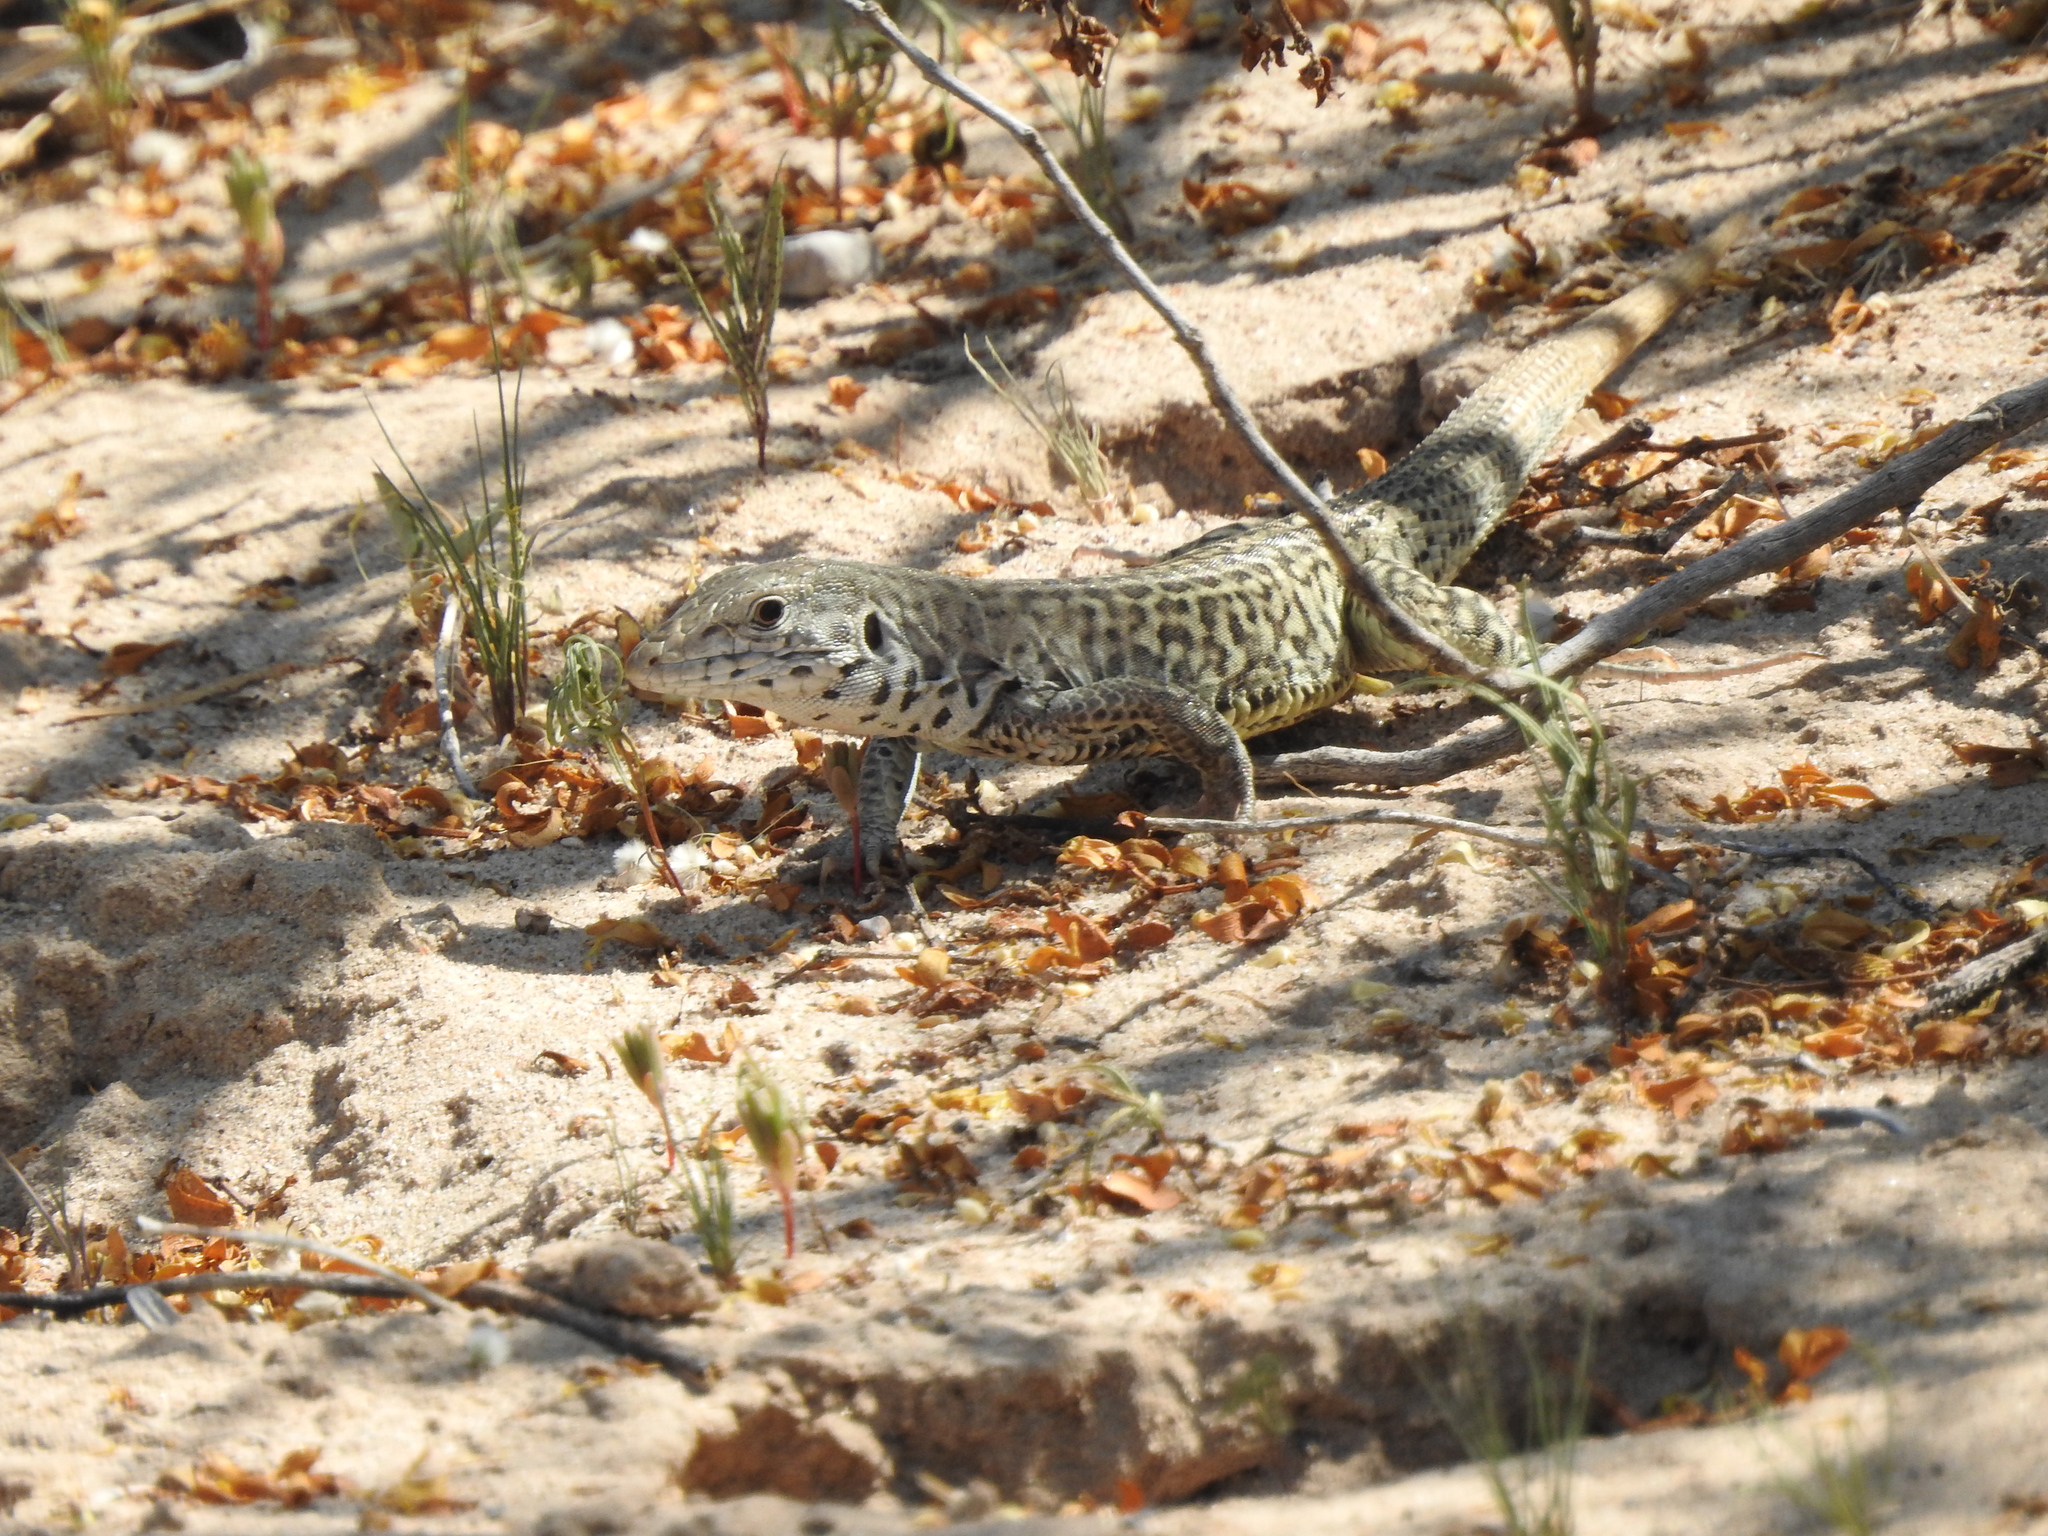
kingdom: Animalia
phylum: Chordata
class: Squamata
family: Teiidae
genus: Aspidoscelis
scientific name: Aspidoscelis marmoratus
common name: Eastern marbled whiptail [reticuloriens]
